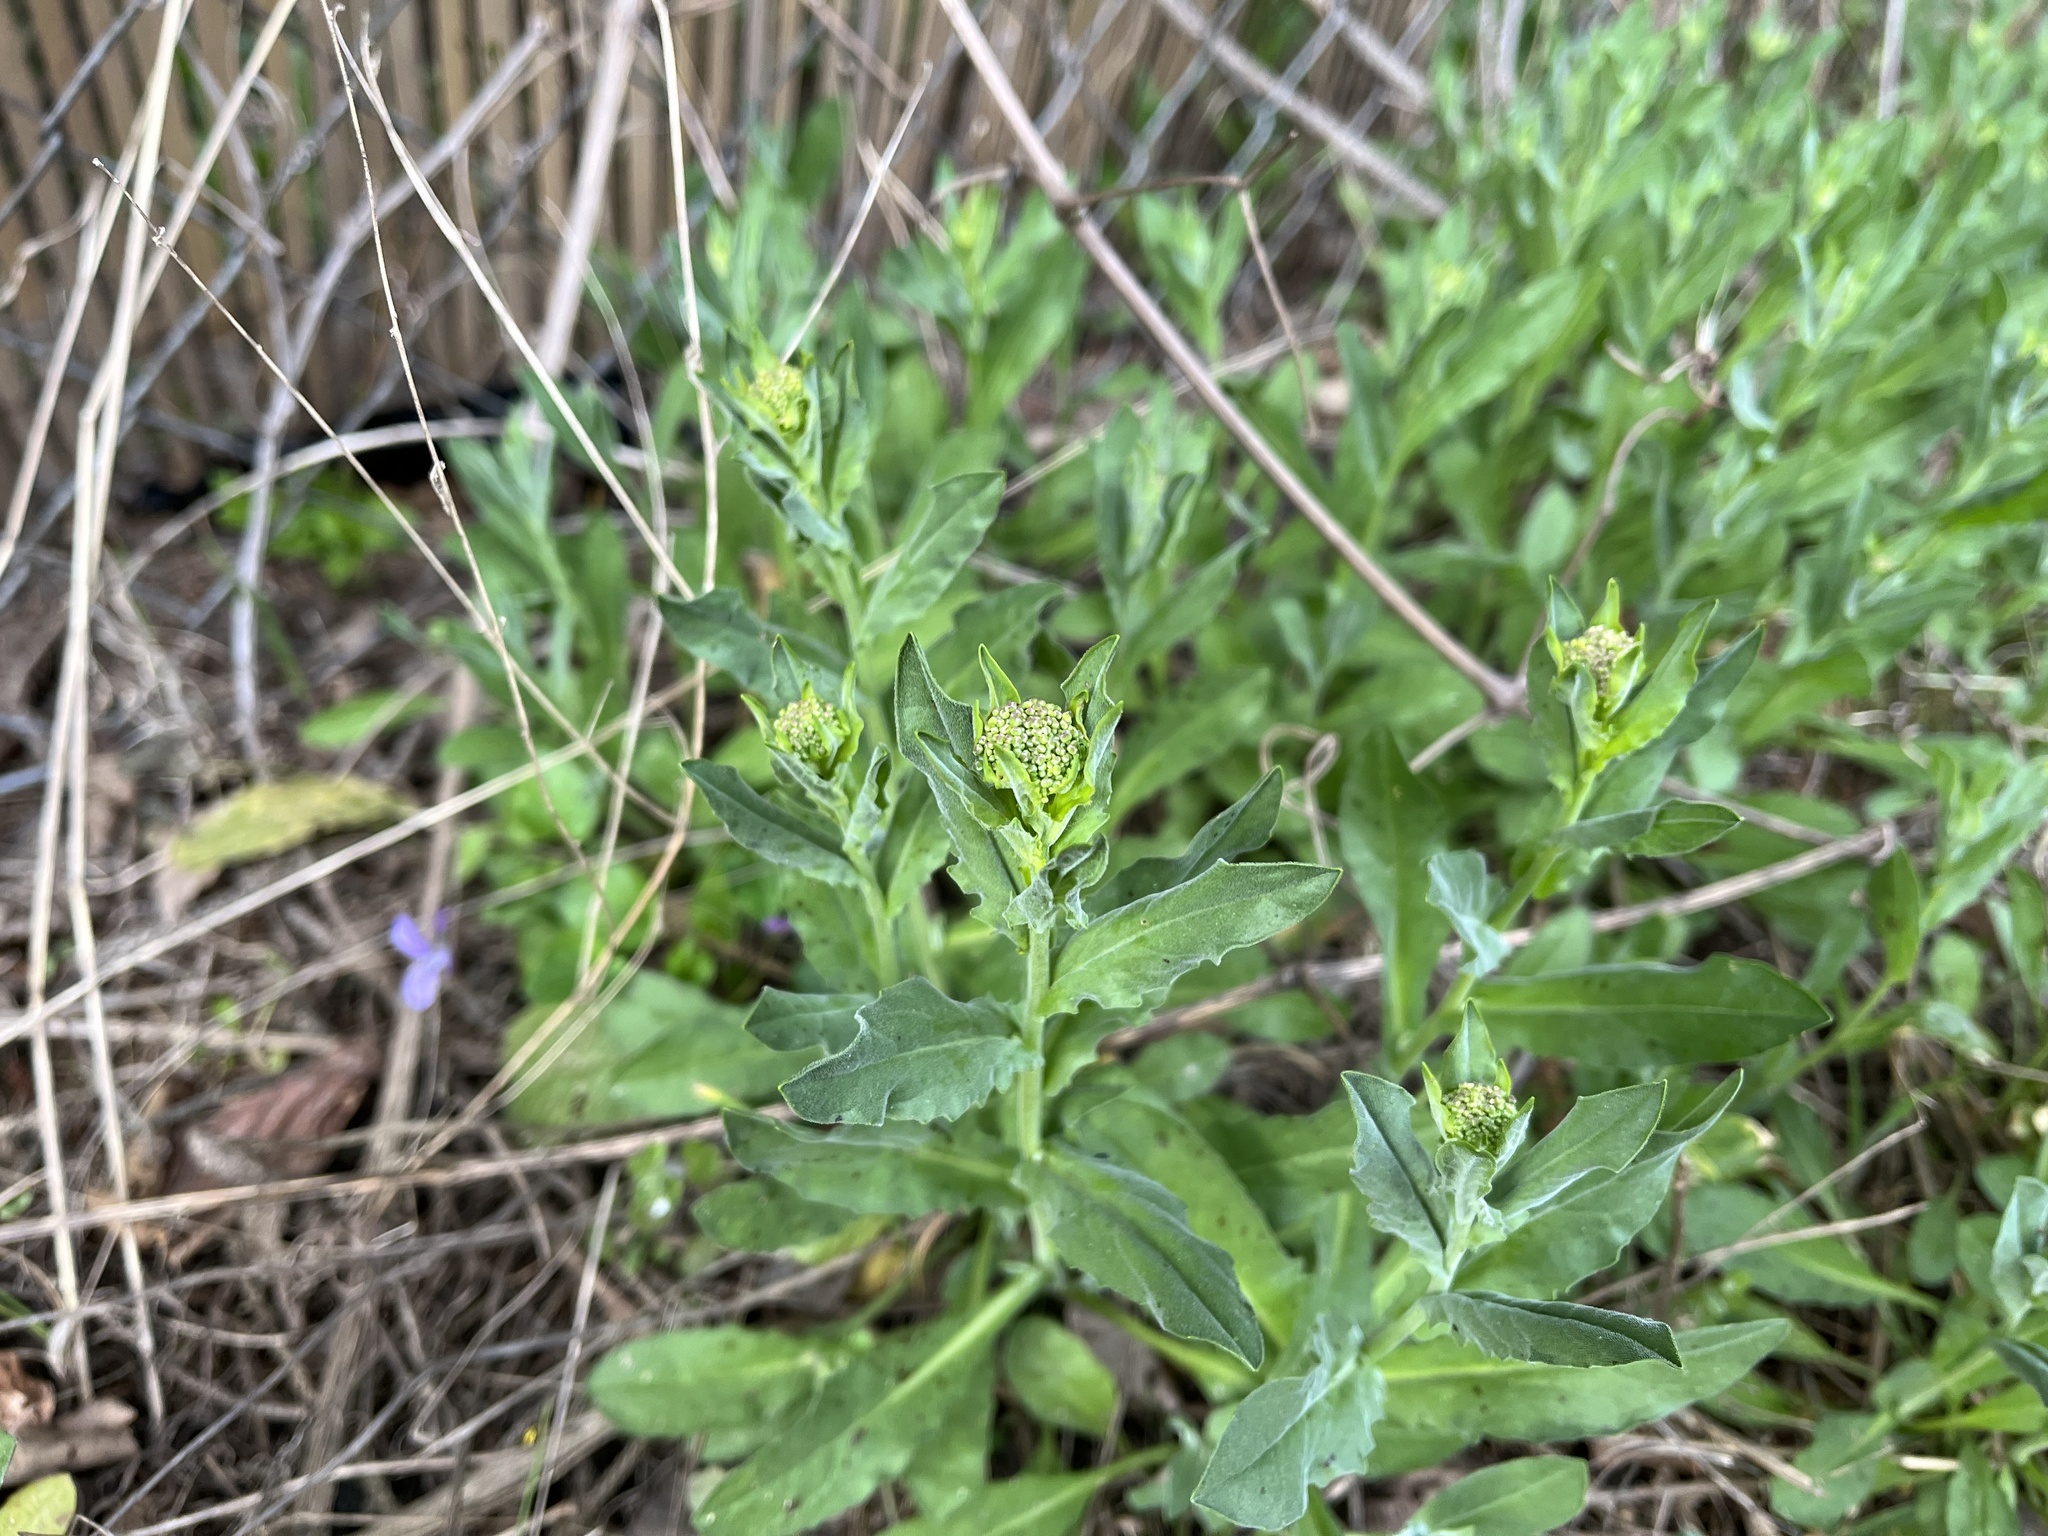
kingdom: Plantae
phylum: Tracheophyta
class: Magnoliopsida
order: Brassicales
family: Brassicaceae
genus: Lepidium
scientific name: Lepidium draba
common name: Hoary cress
